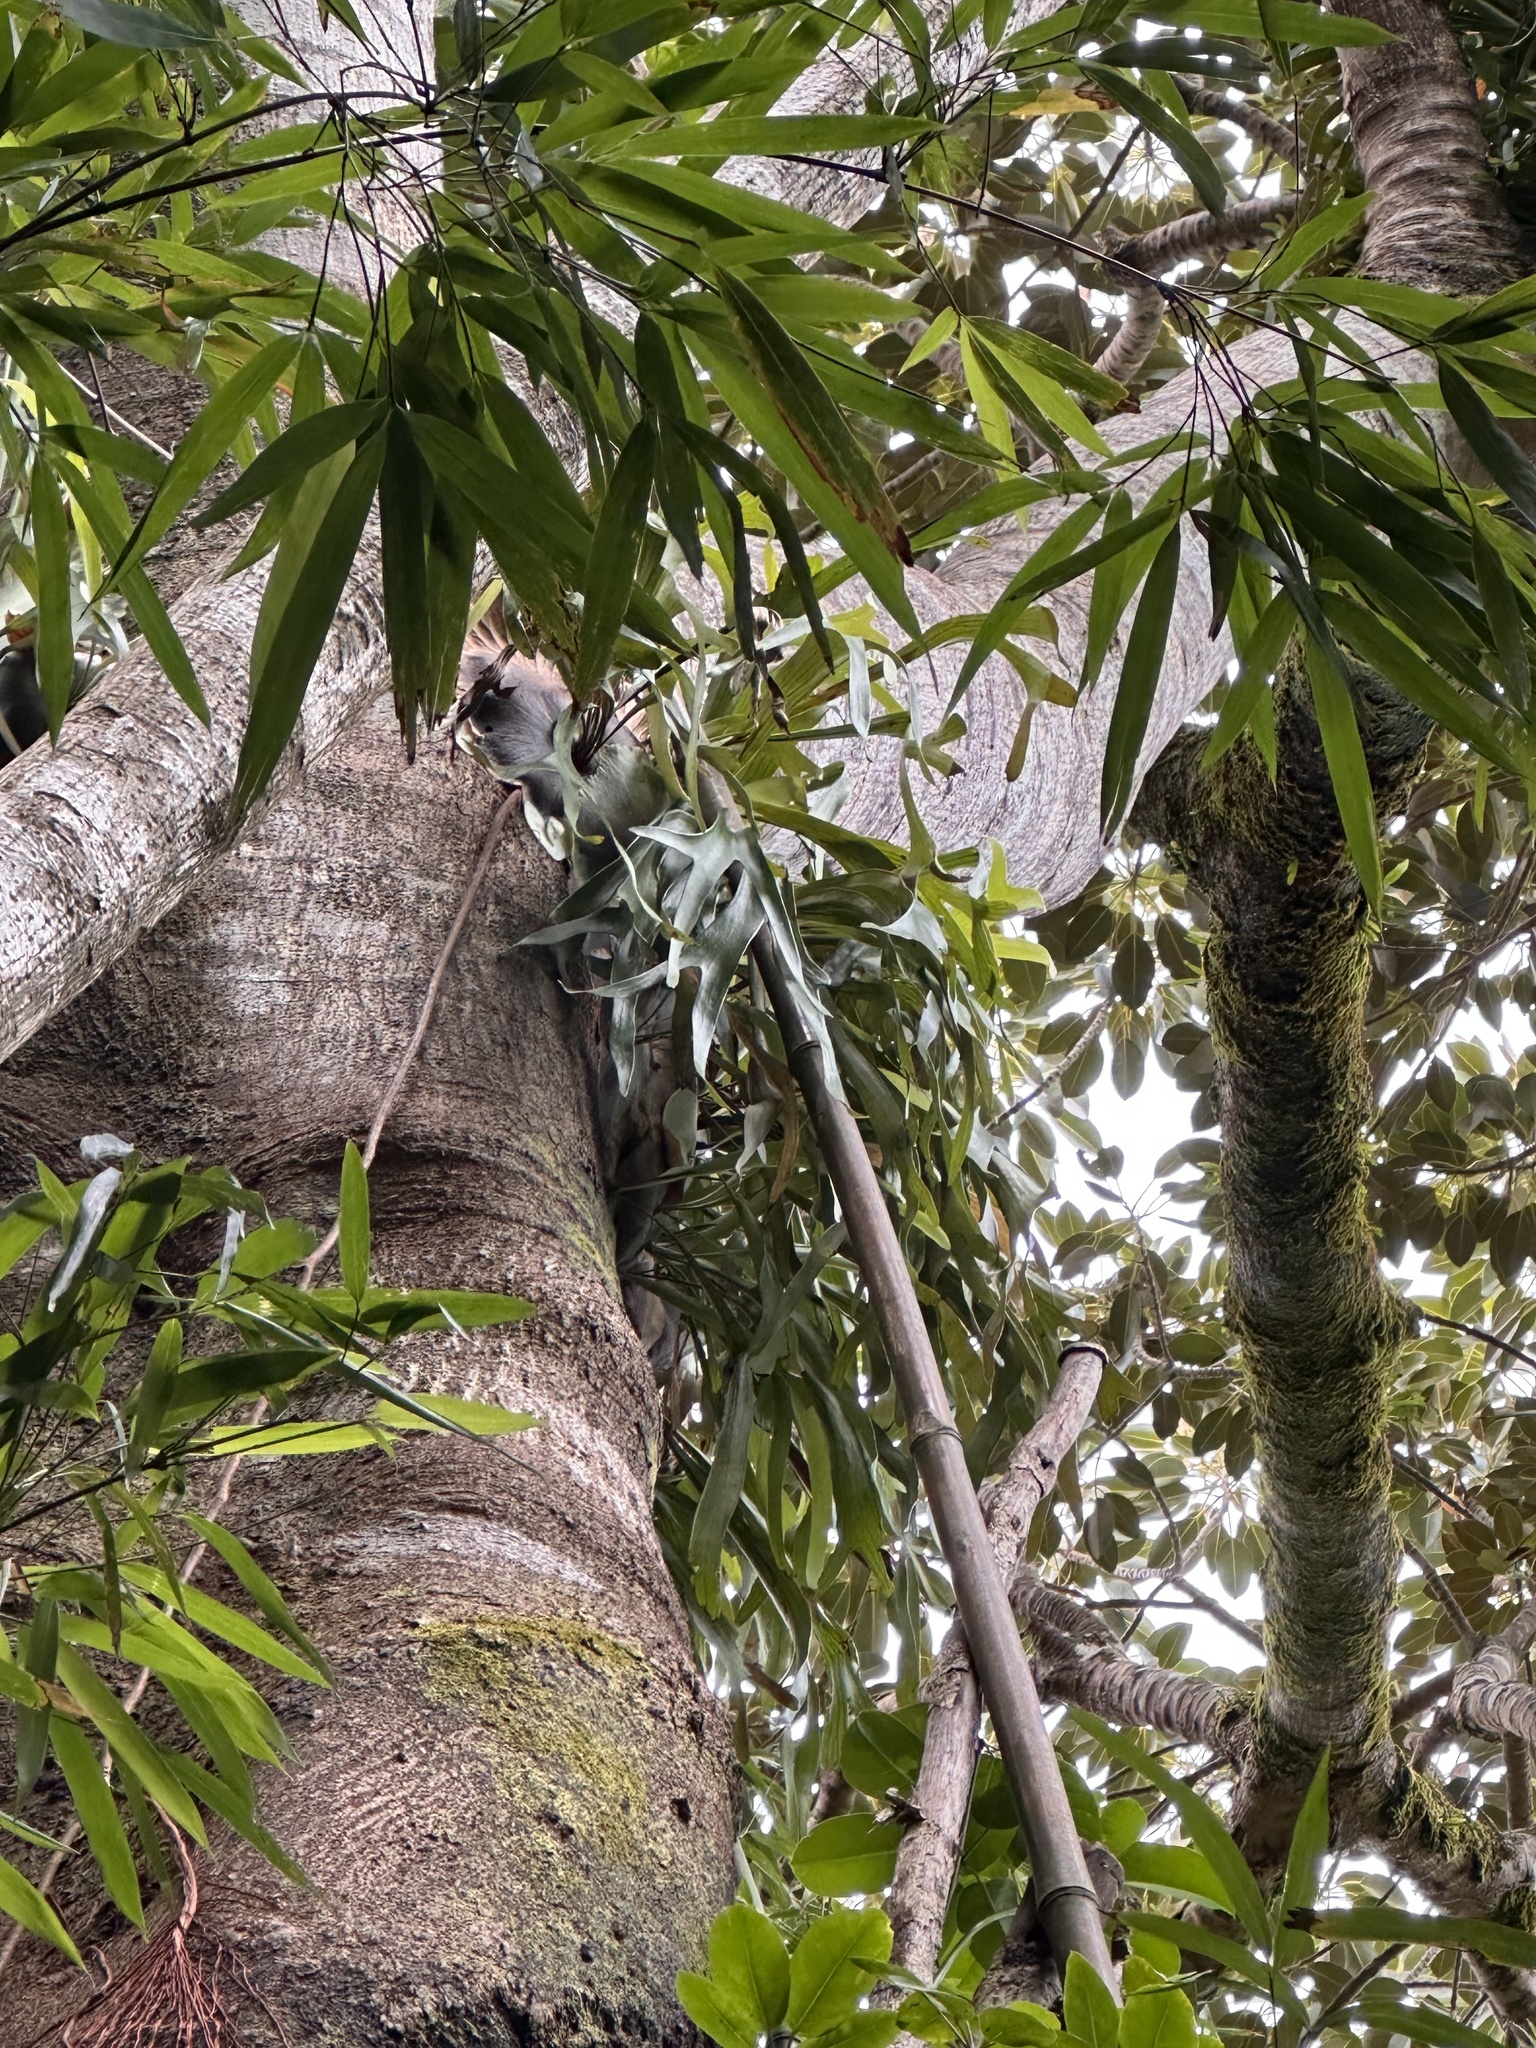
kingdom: Plantae
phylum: Tracheophyta
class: Polypodiopsida
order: Polypodiales
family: Polypodiaceae
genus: Platycerium
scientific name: Platycerium bifurcatum
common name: Elkhorn fern
